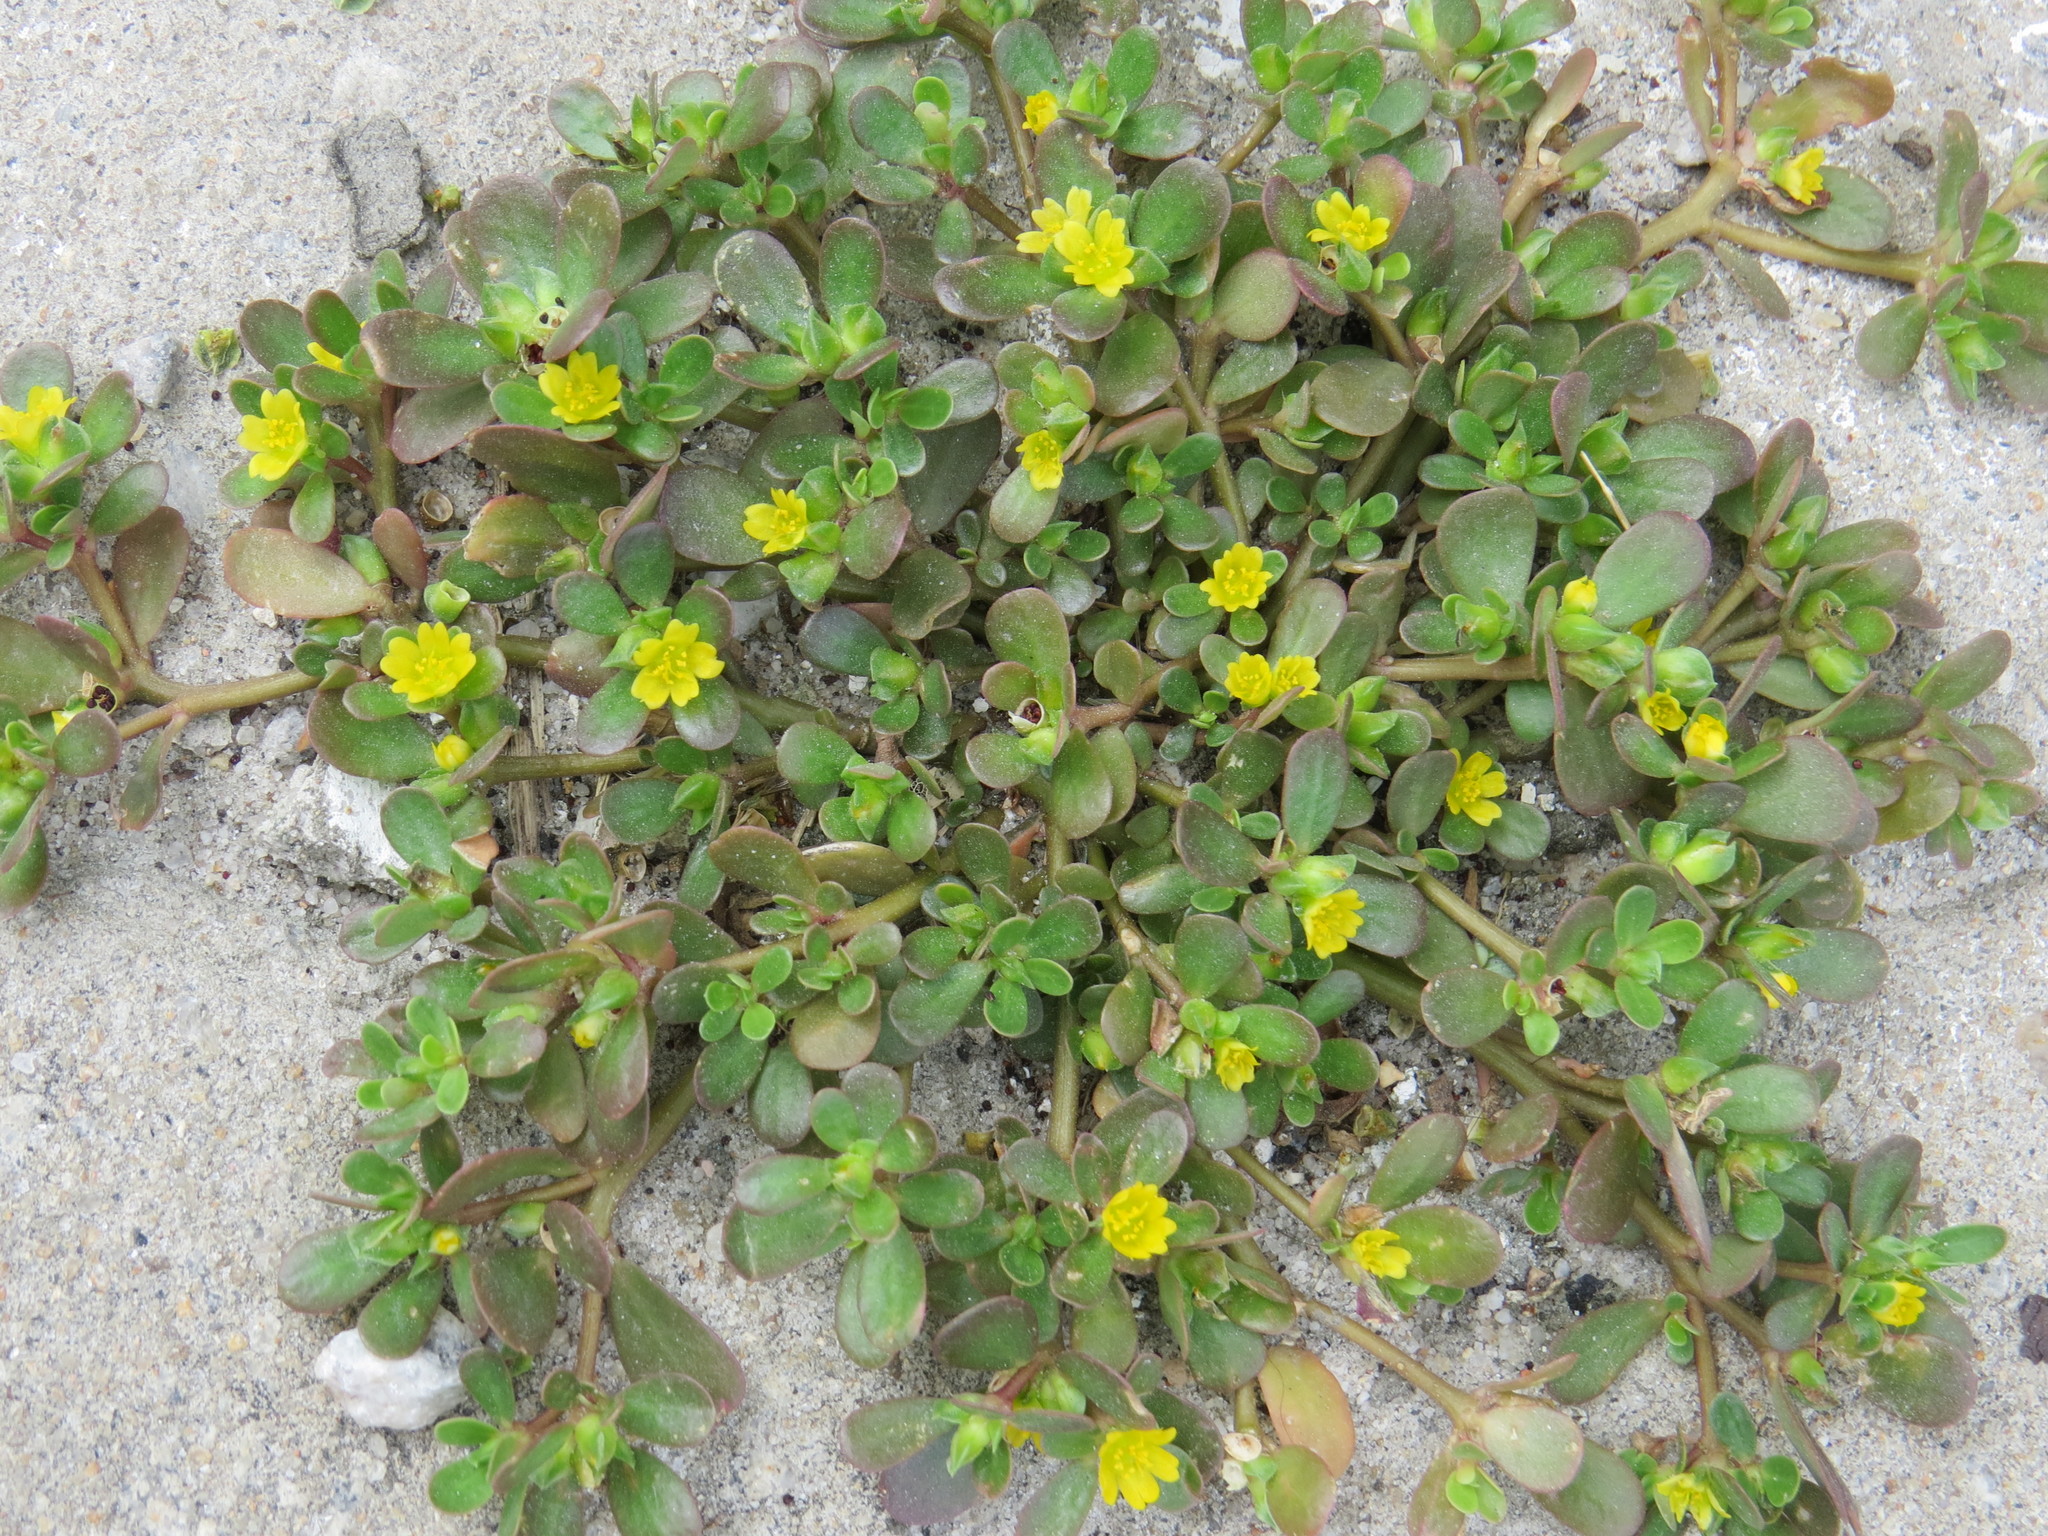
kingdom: Plantae
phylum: Tracheophyta
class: Magnoliopsida
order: Caryophyllales
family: Portulacaceae
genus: Portulaca
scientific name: Portulaca oleracea
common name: Common purslane
